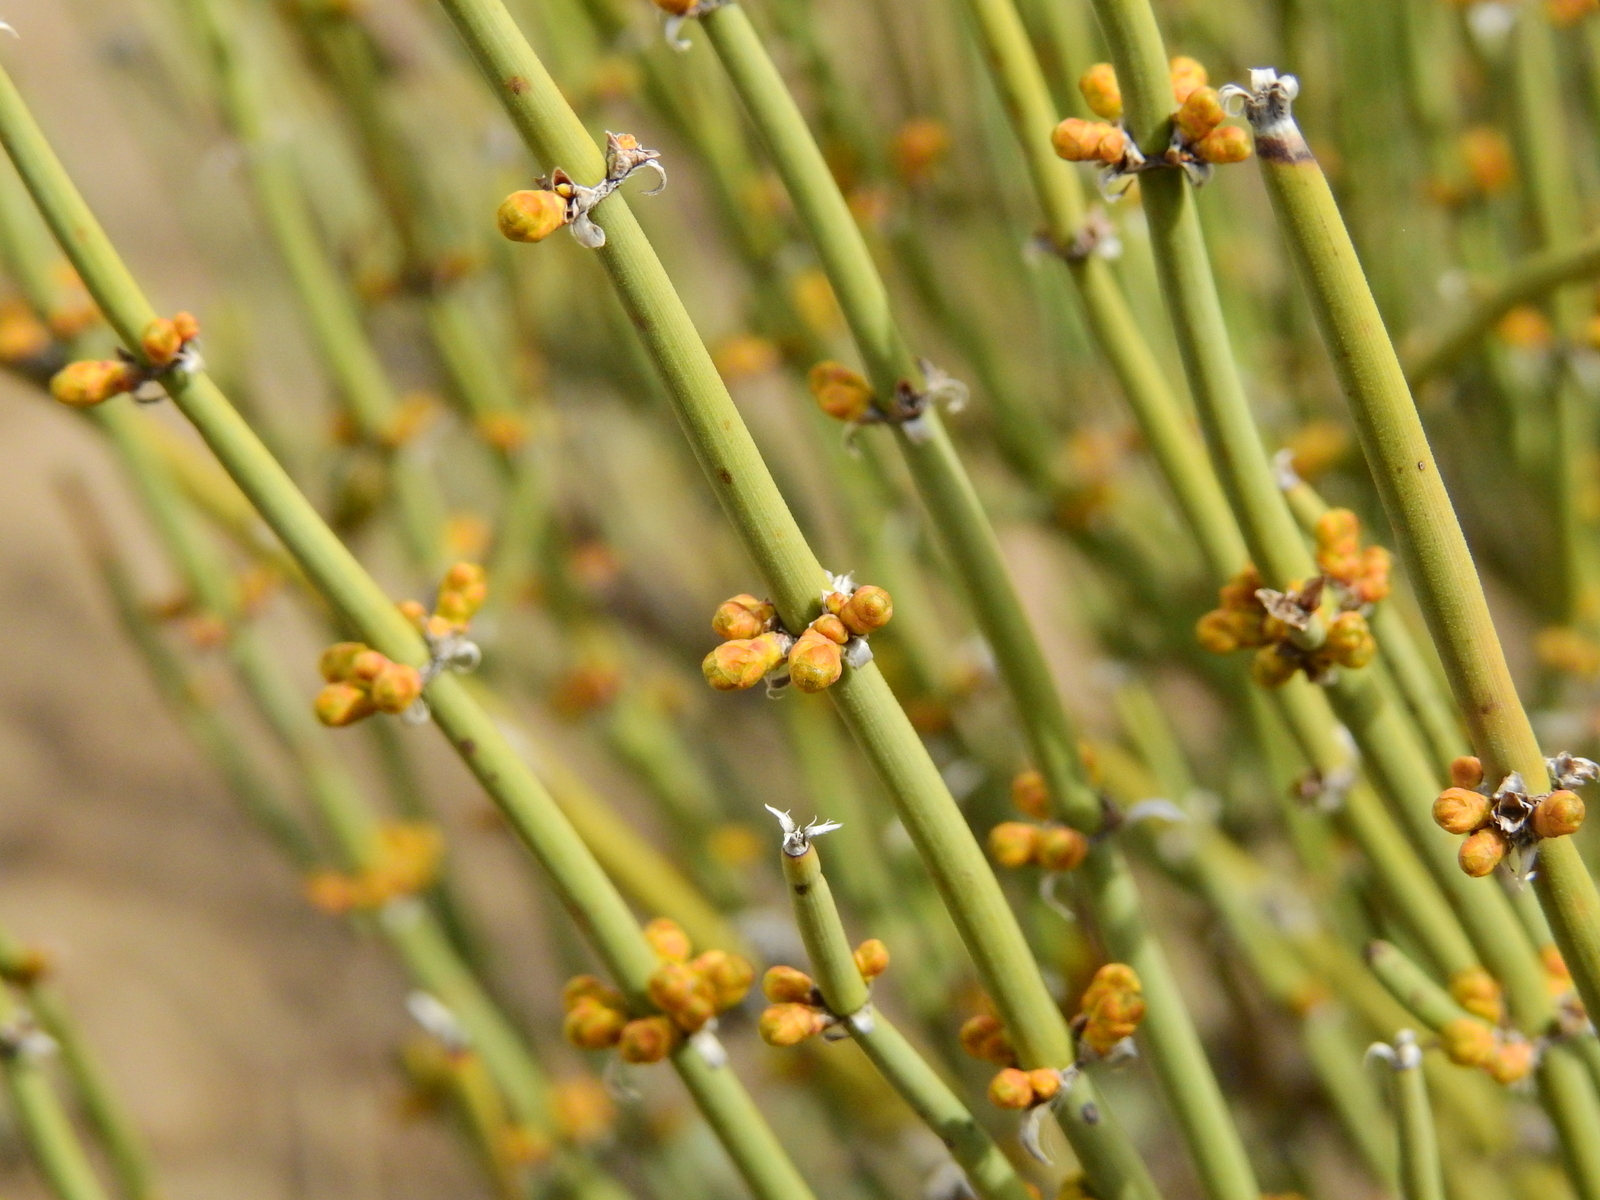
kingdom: Plantae
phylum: Tracheophyta
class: Gnetopsida
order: Ephedrales
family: Ephedraceae
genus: Ephedra
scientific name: Ephedra ochreata
